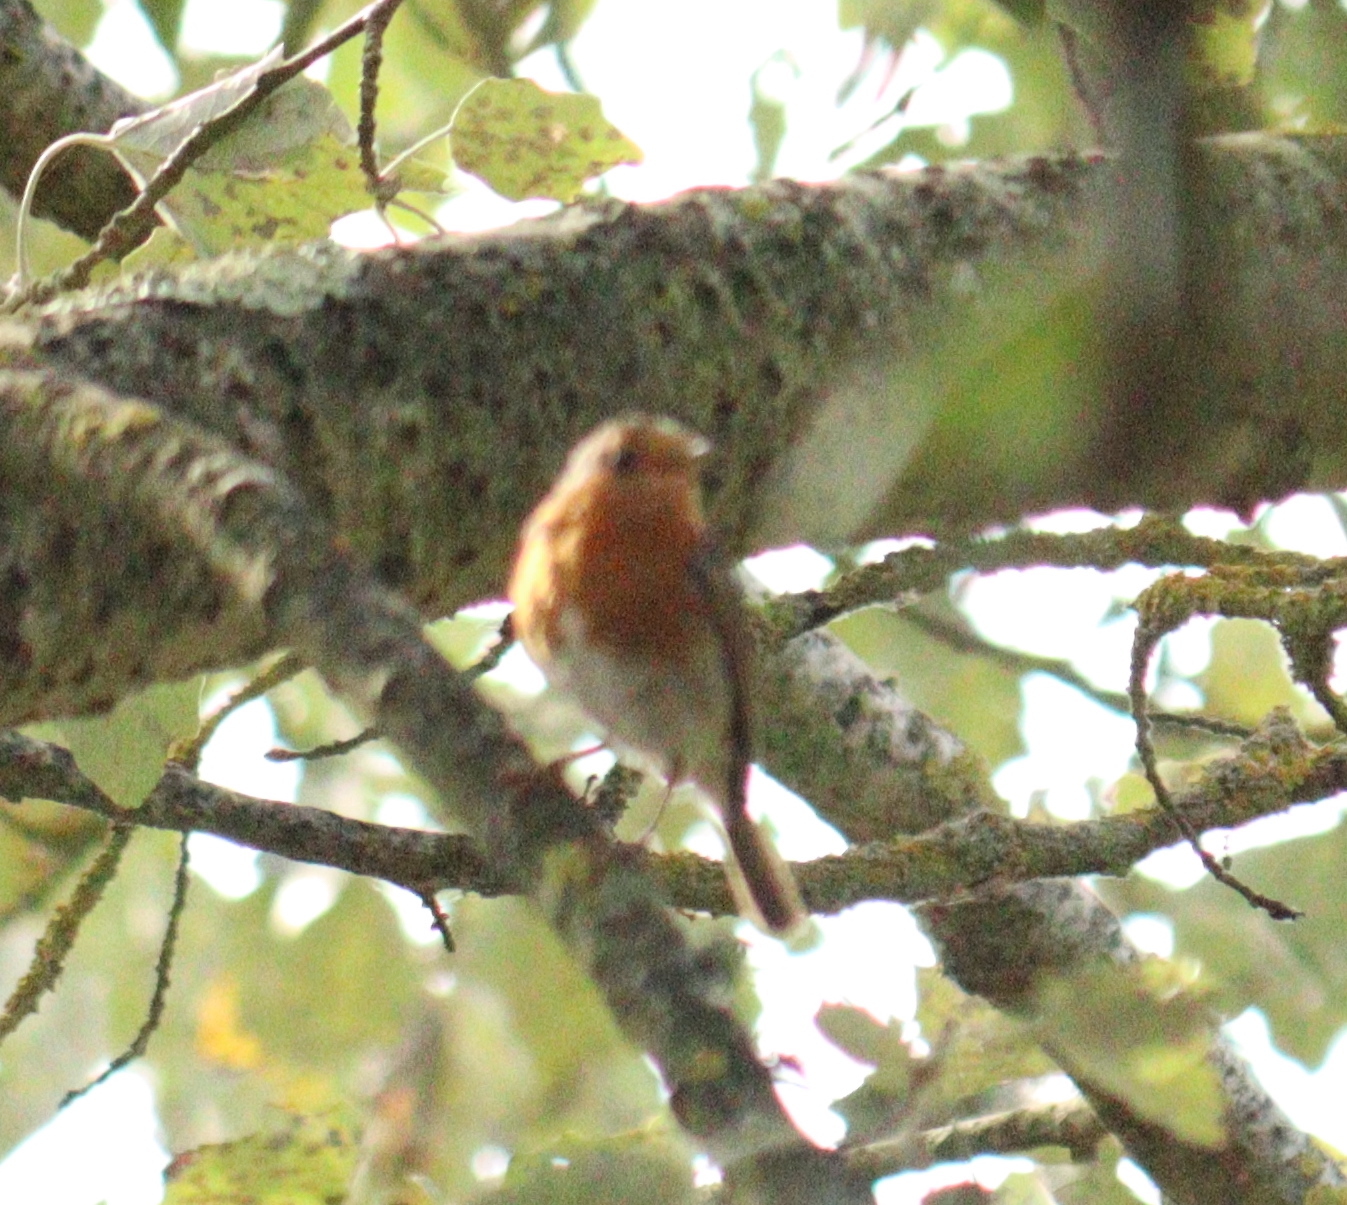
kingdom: Animalia
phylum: Chordata
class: Aves
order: Passeriformes
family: Muscicapidae
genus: Erithacus
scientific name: Erithacus rubecula
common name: European robin
